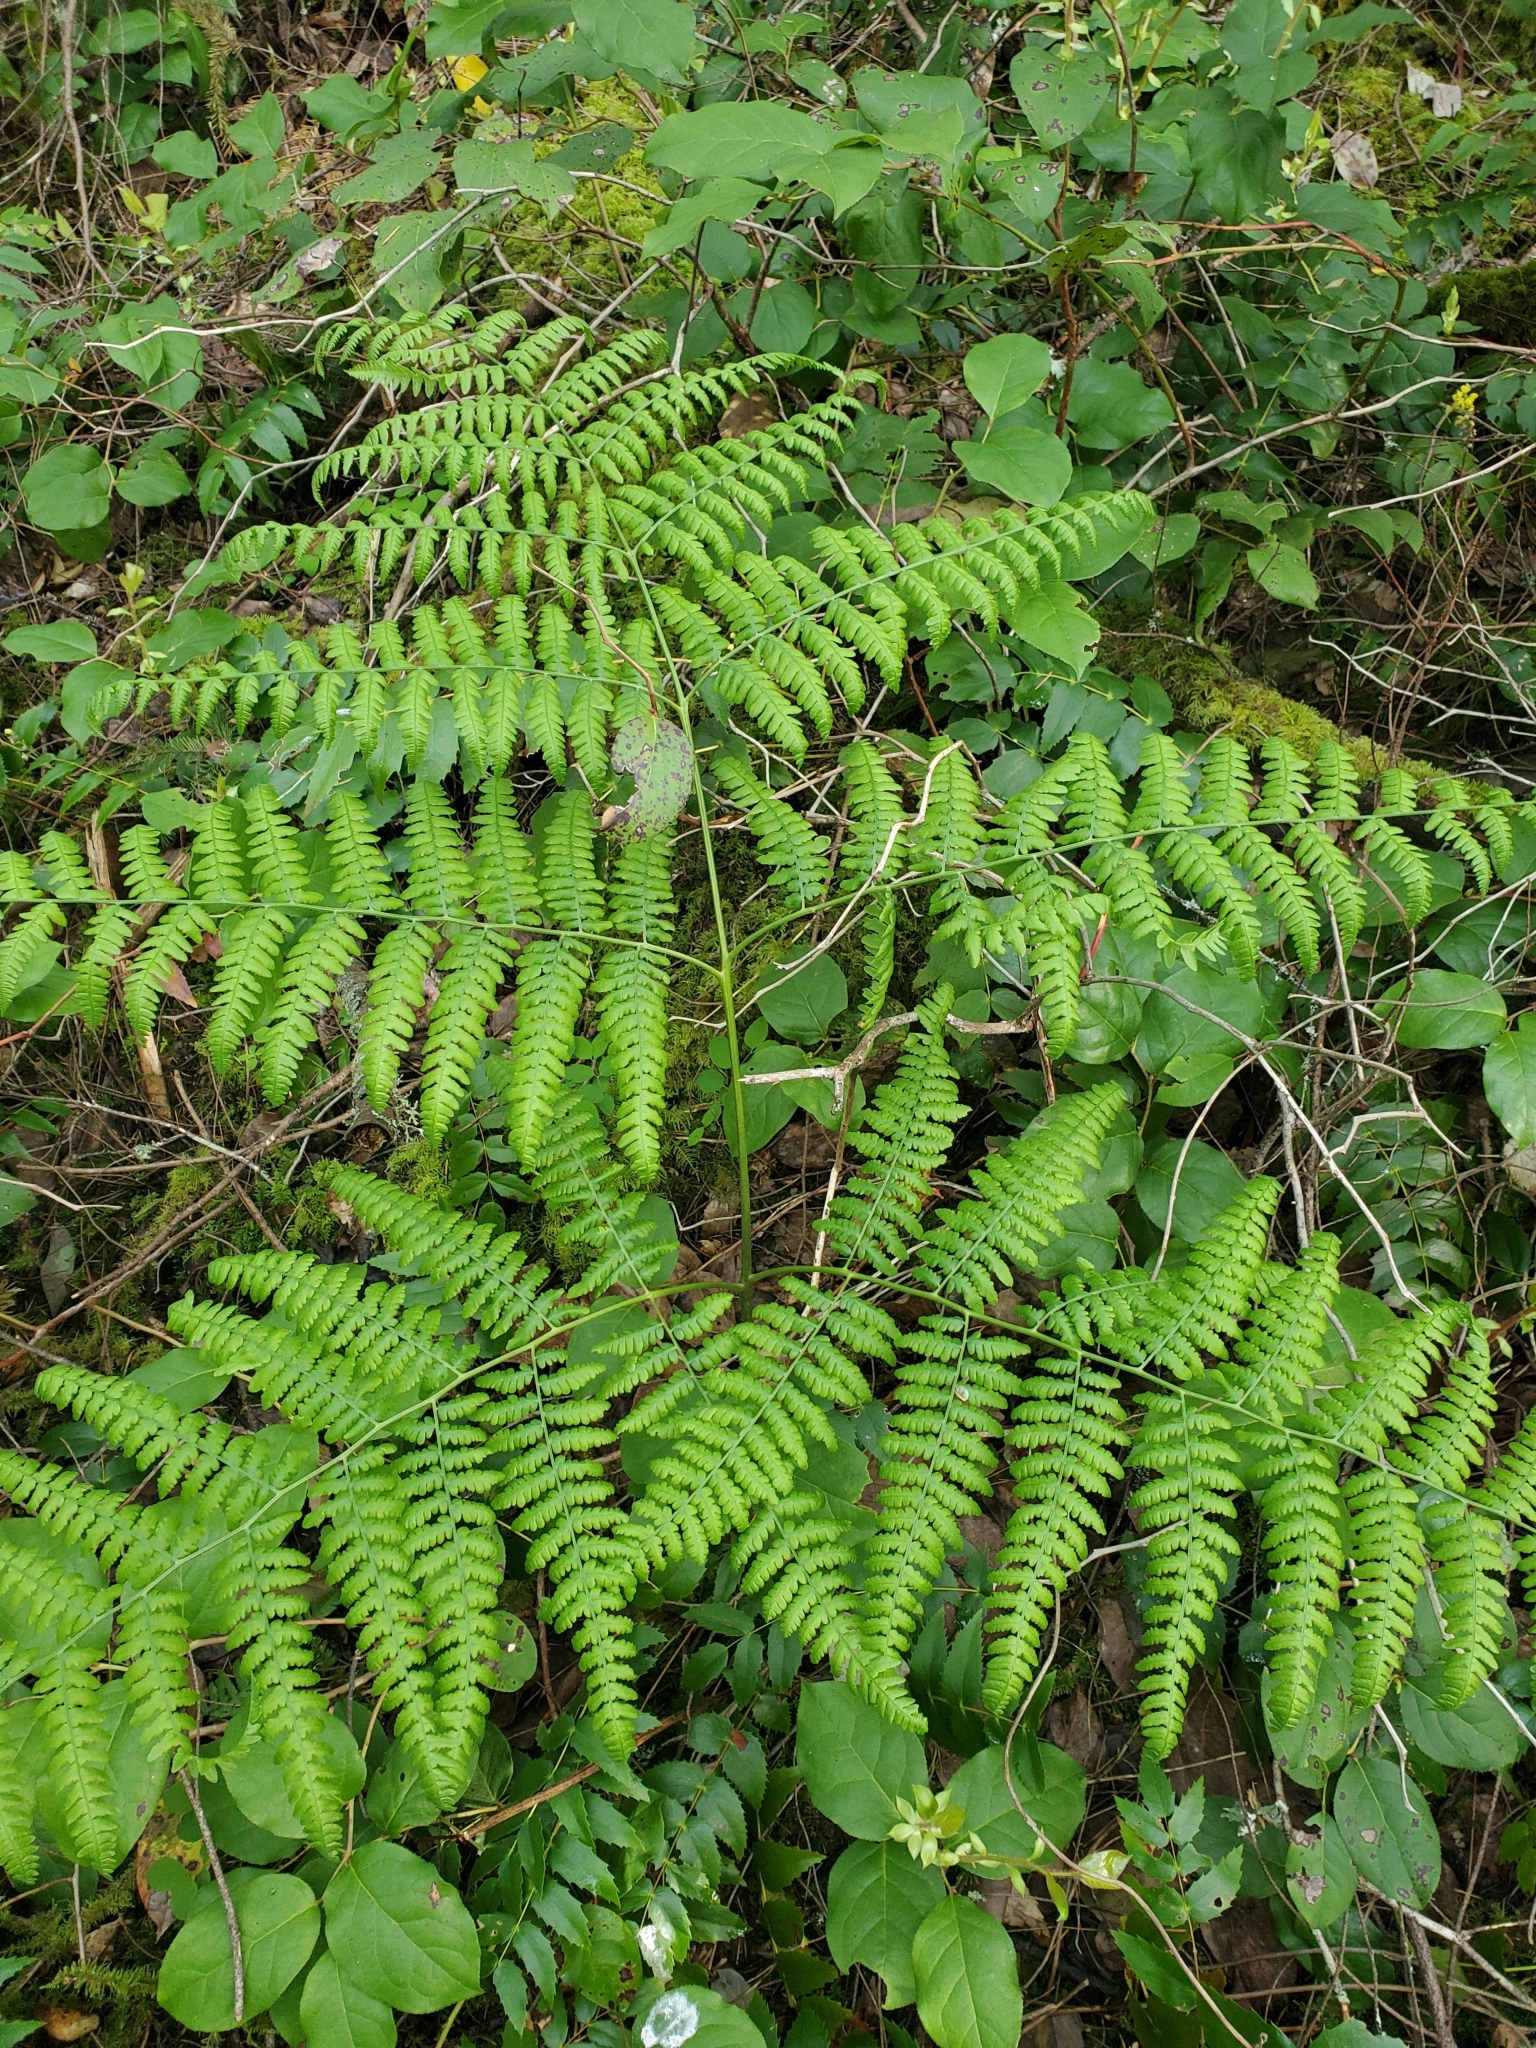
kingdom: Plantae
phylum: Tracheophyta
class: Polypodiopsida
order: Polypodiales
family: Dennstaedtiaceae
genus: Pteridium
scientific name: Pteridium aquilinum
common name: Bracken
